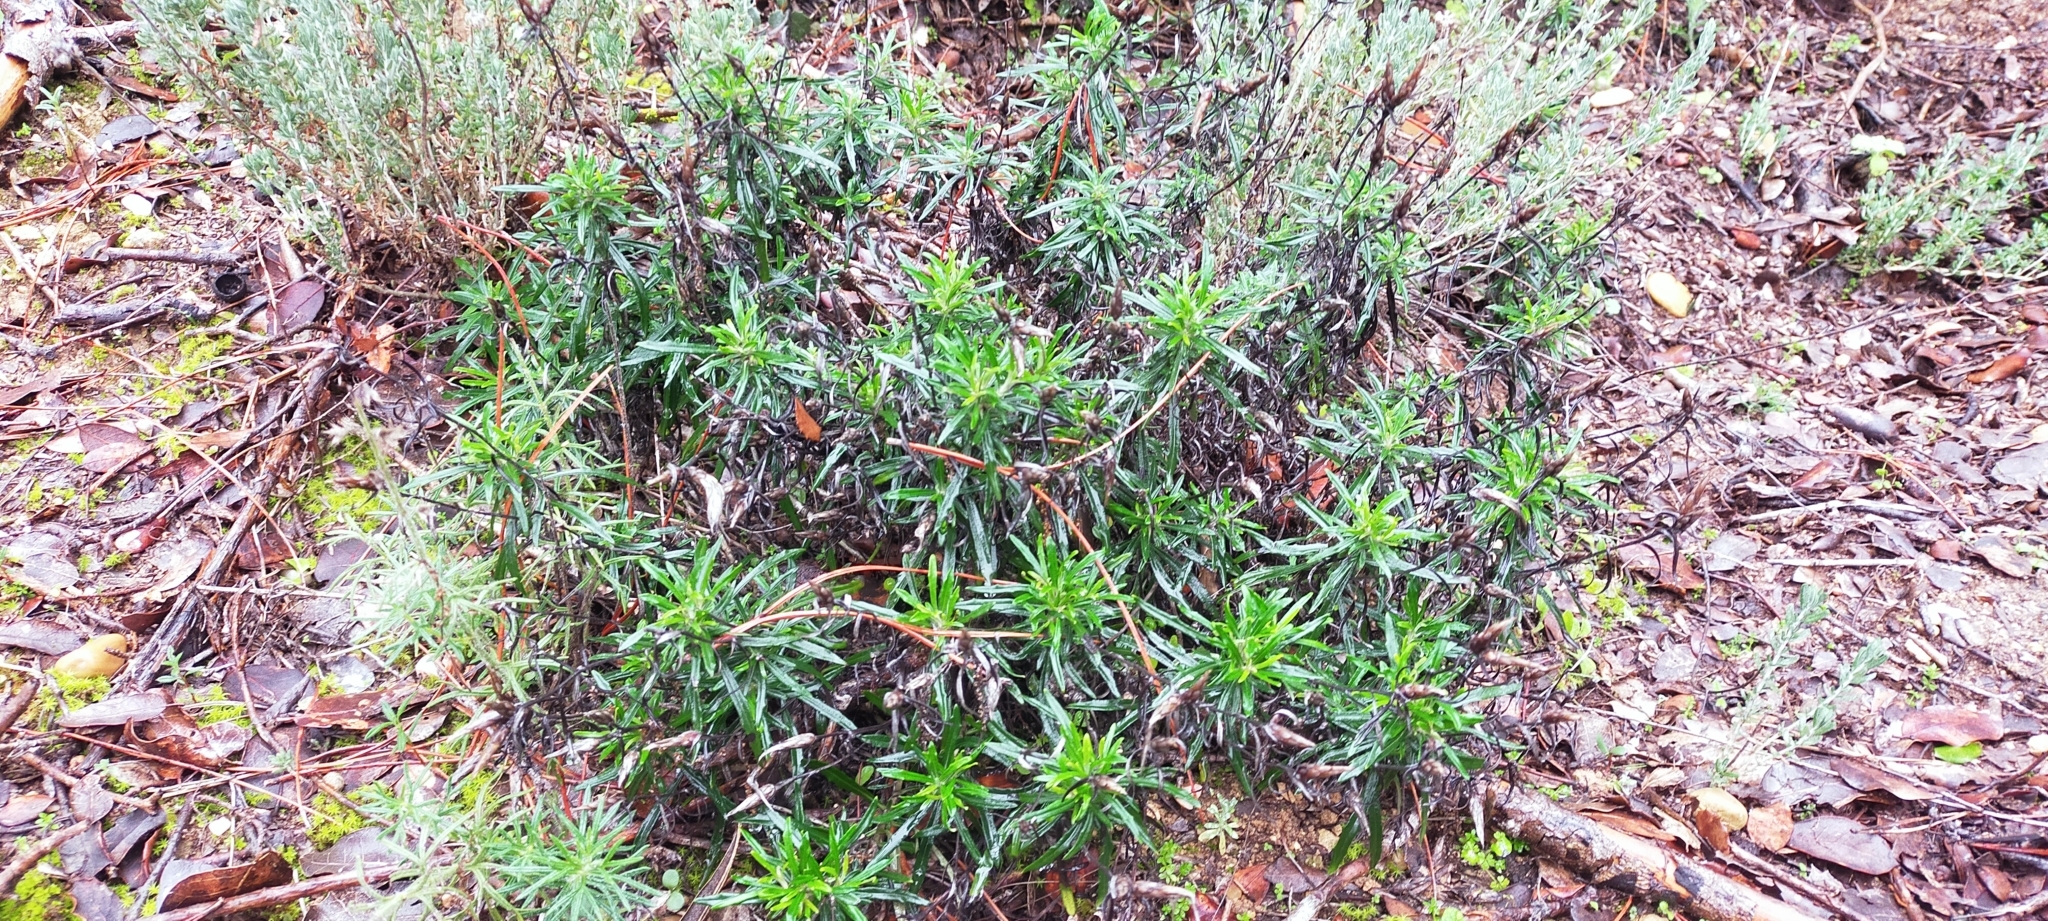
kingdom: Plantae
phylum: Tracheophyta
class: Magnoliopsida
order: Asterales
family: Asteraceae
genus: Staehelina
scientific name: Staehelina dubia
